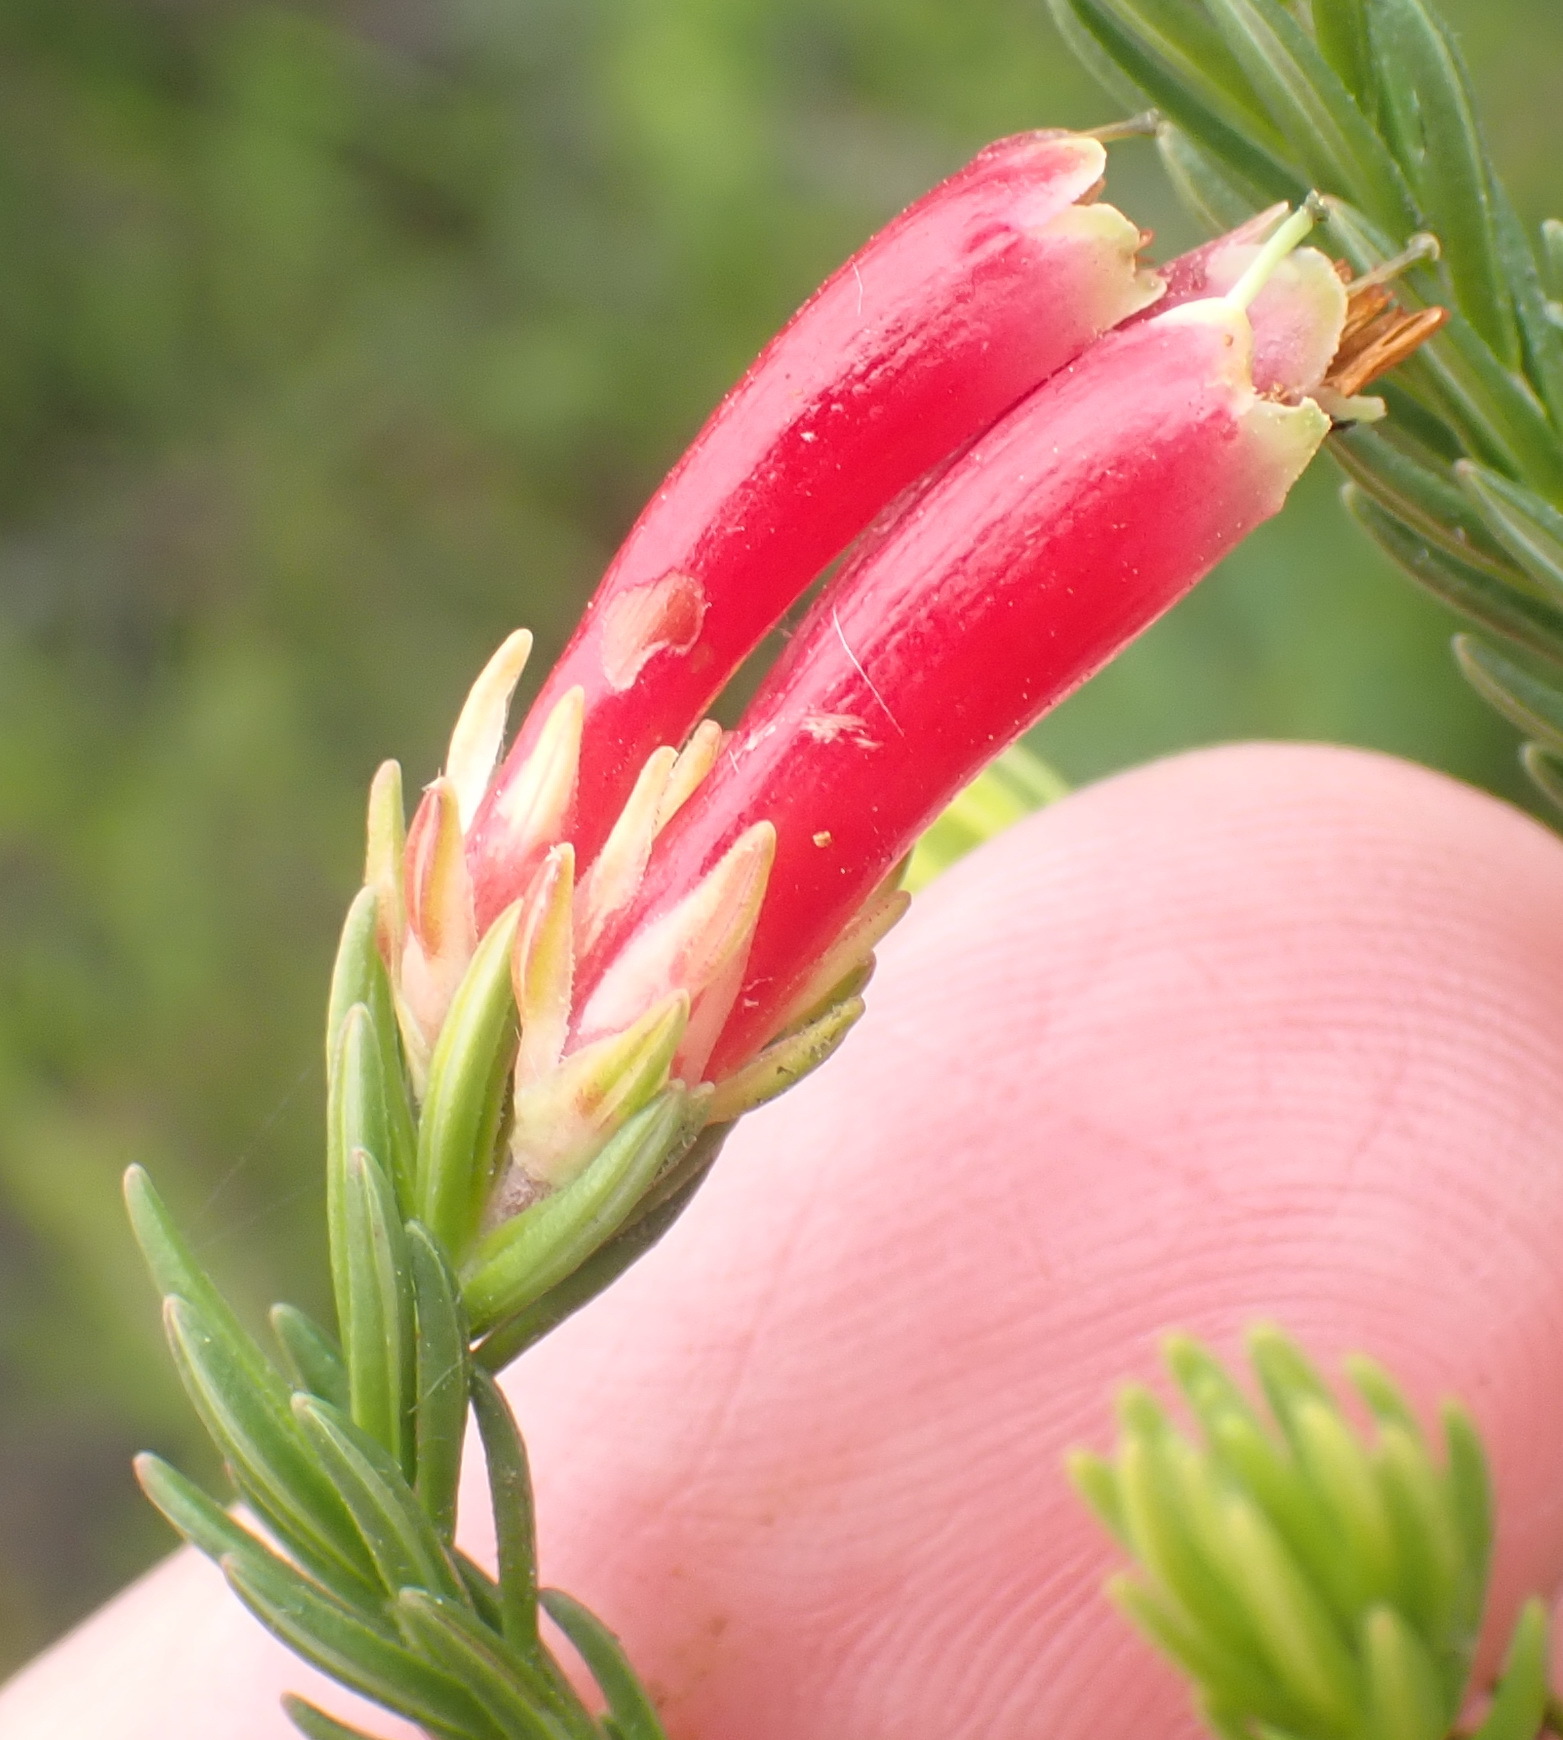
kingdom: Plantae
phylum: Tracheophyta
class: Magnoliopsida
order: Ericales
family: Ericaceae
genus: Erica
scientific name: Erica discolor
